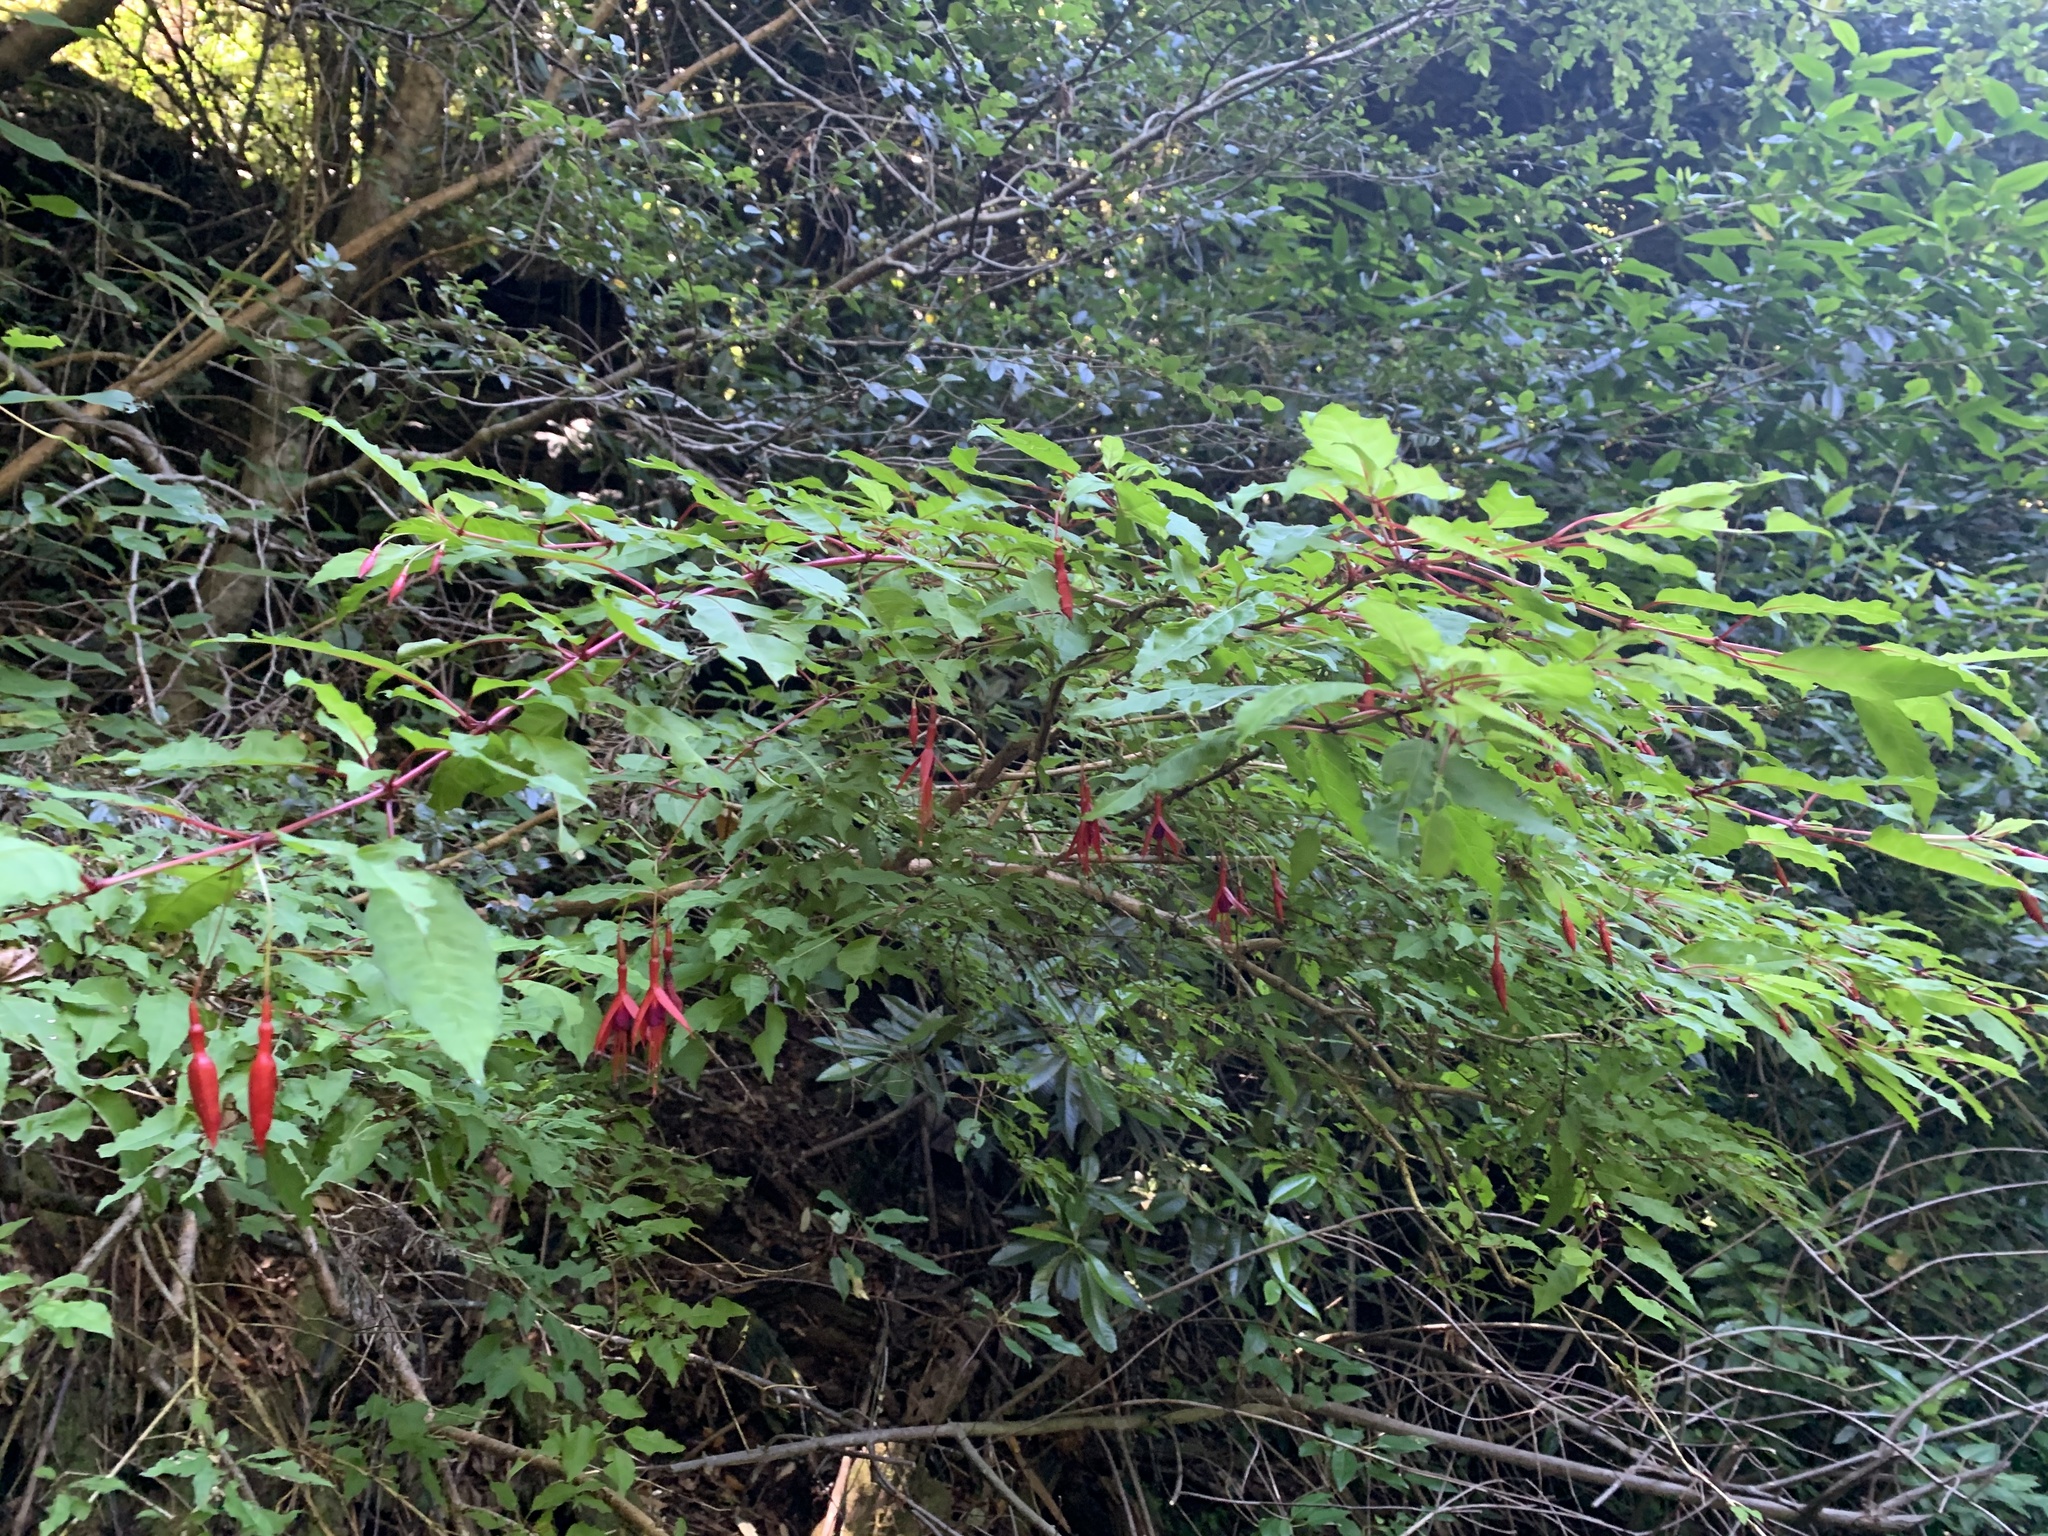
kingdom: Plantae
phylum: Tracheophyta
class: Magnoliopsida
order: Myrtales
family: Onagraceae
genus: Fuchsia
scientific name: Fuchsia magellanica
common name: Hardy fuchsia
